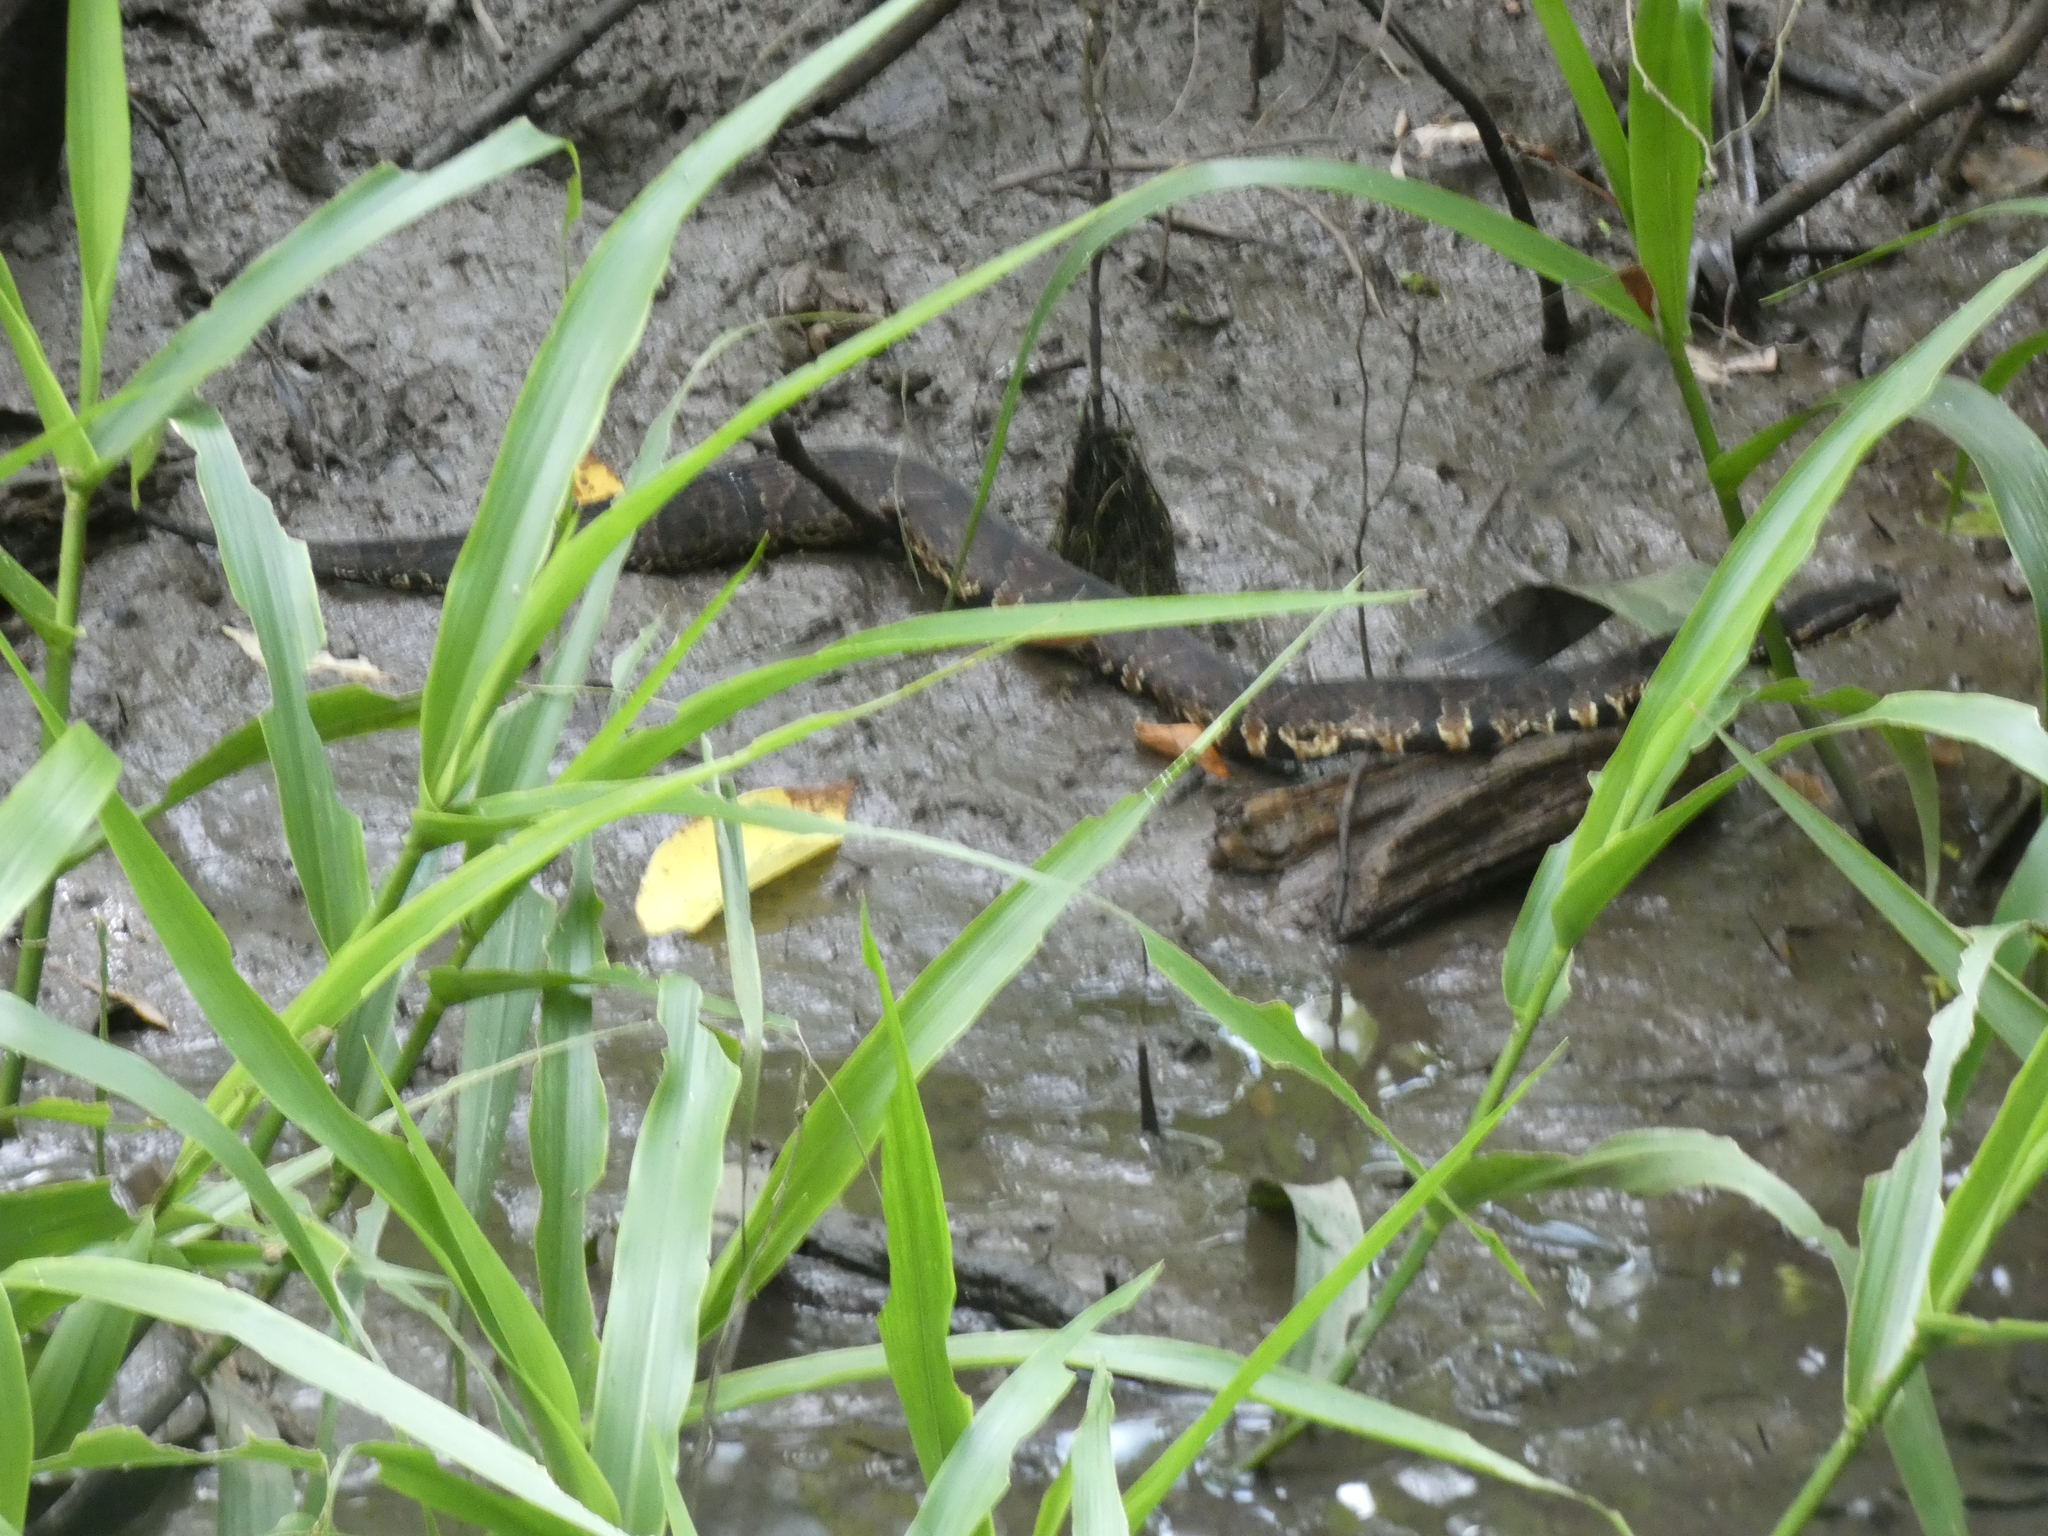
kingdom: Animalia
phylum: Chordata
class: Squamata
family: Viperidae
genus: Agkistrodon
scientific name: Agkistrodon piscivorus
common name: Cottonmouth
